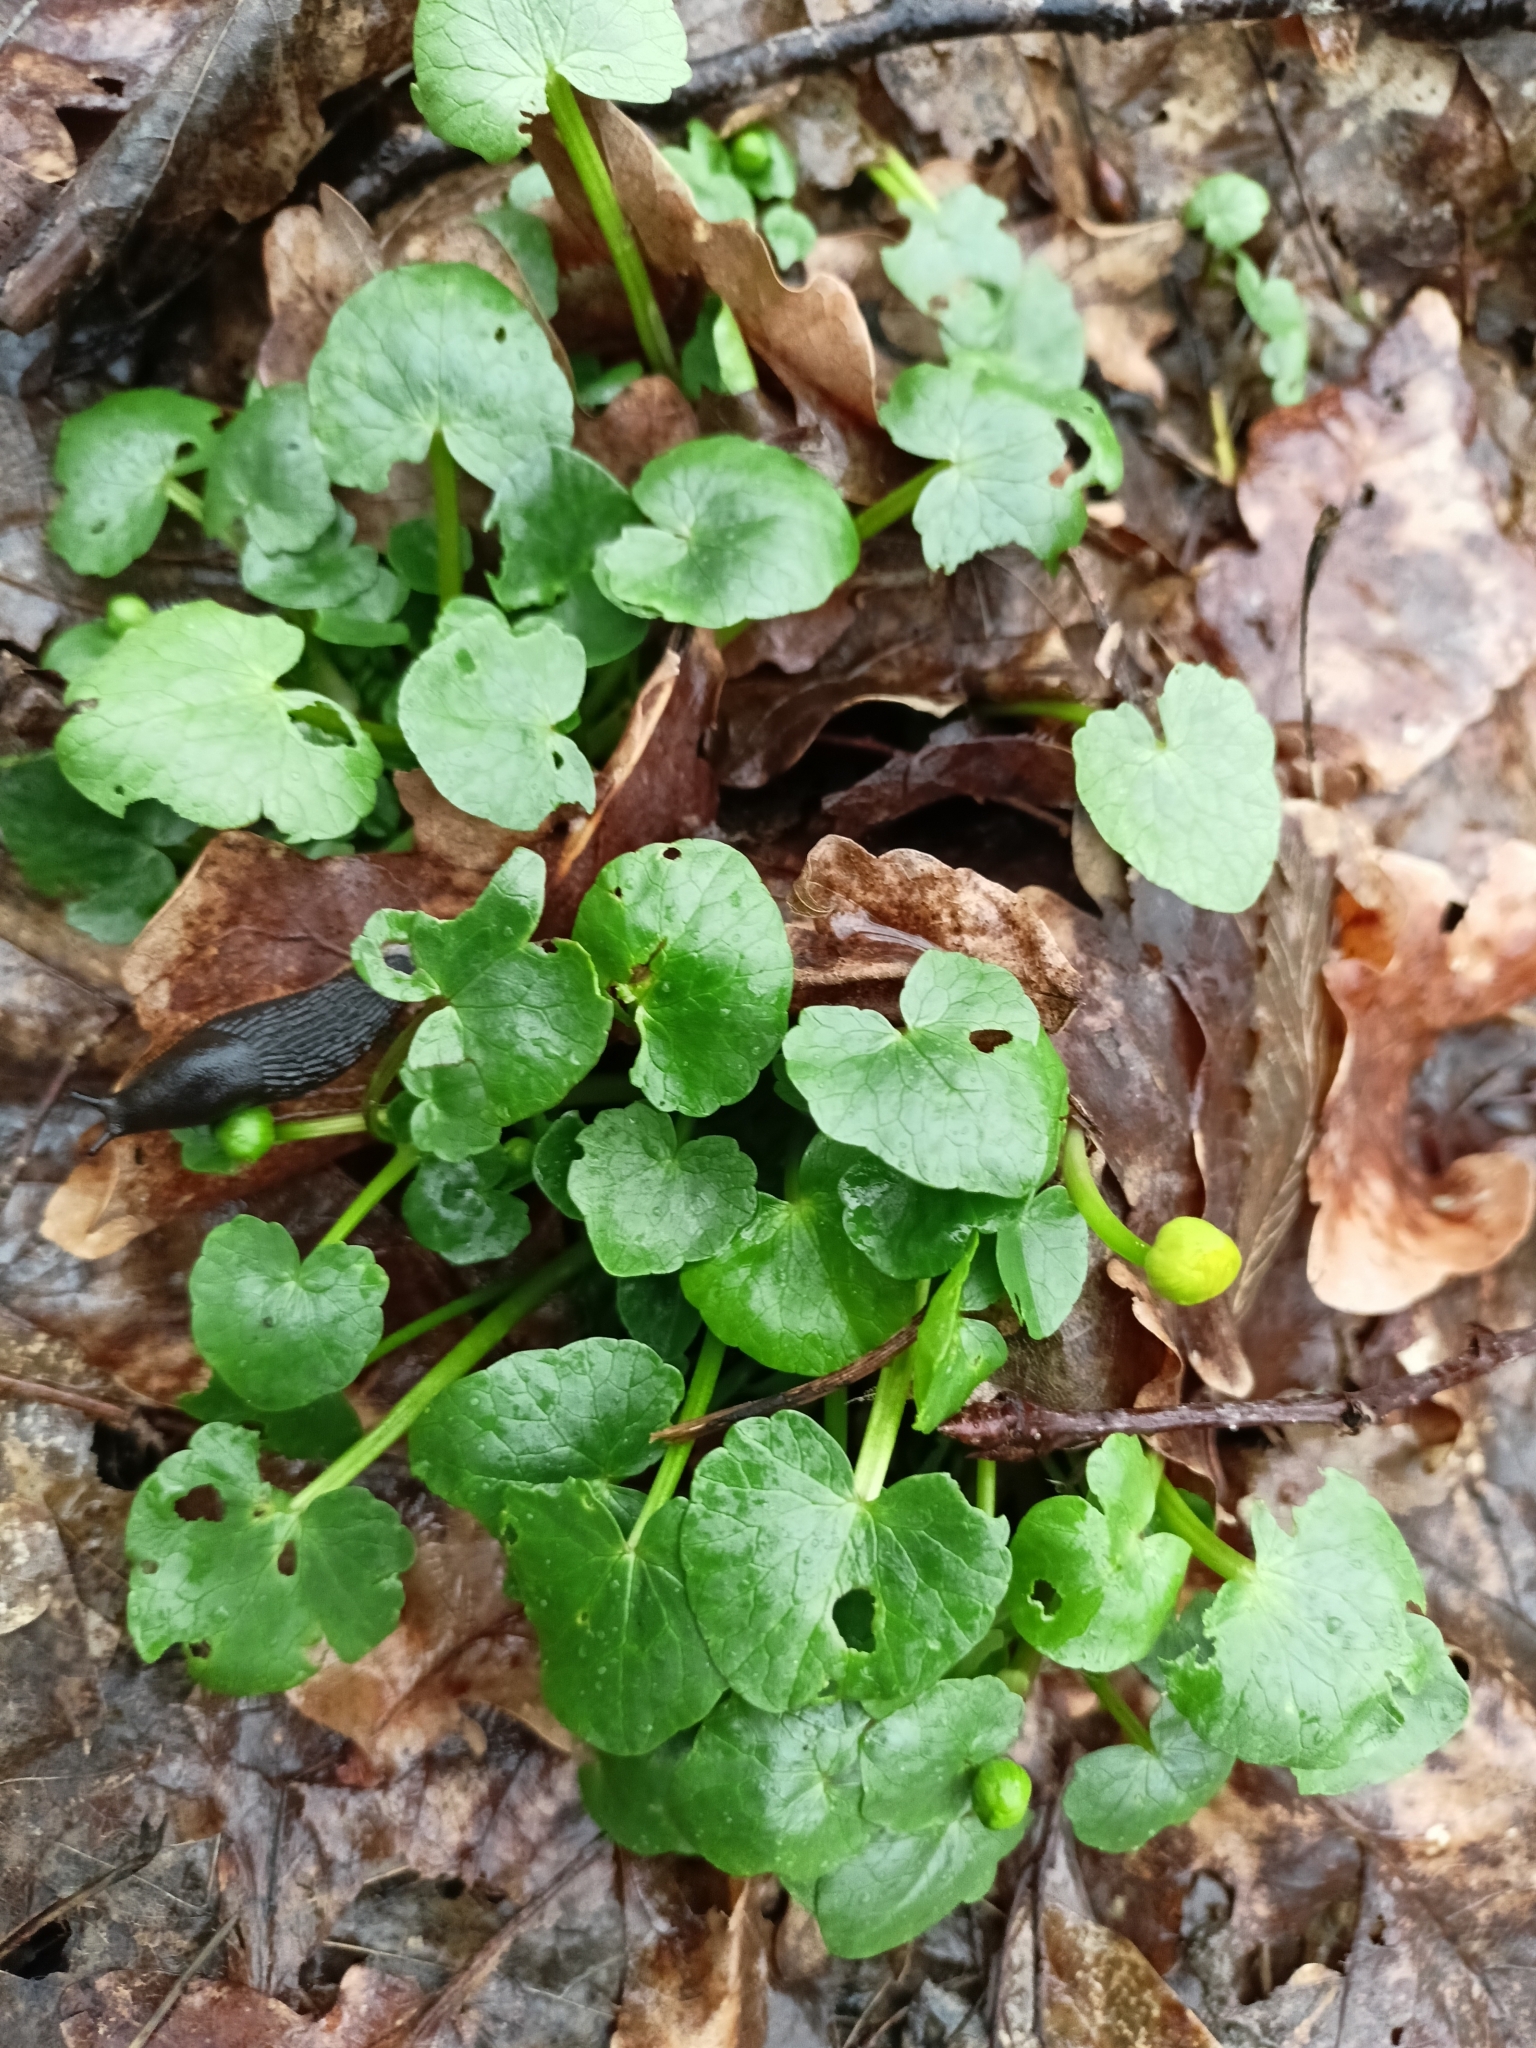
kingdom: Plantae
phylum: Tracheophyta
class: Magnoliopsida
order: Ranunculales
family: Ranunculaceae
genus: Ficaria
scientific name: Ficaria verna
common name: Lesser celandine
